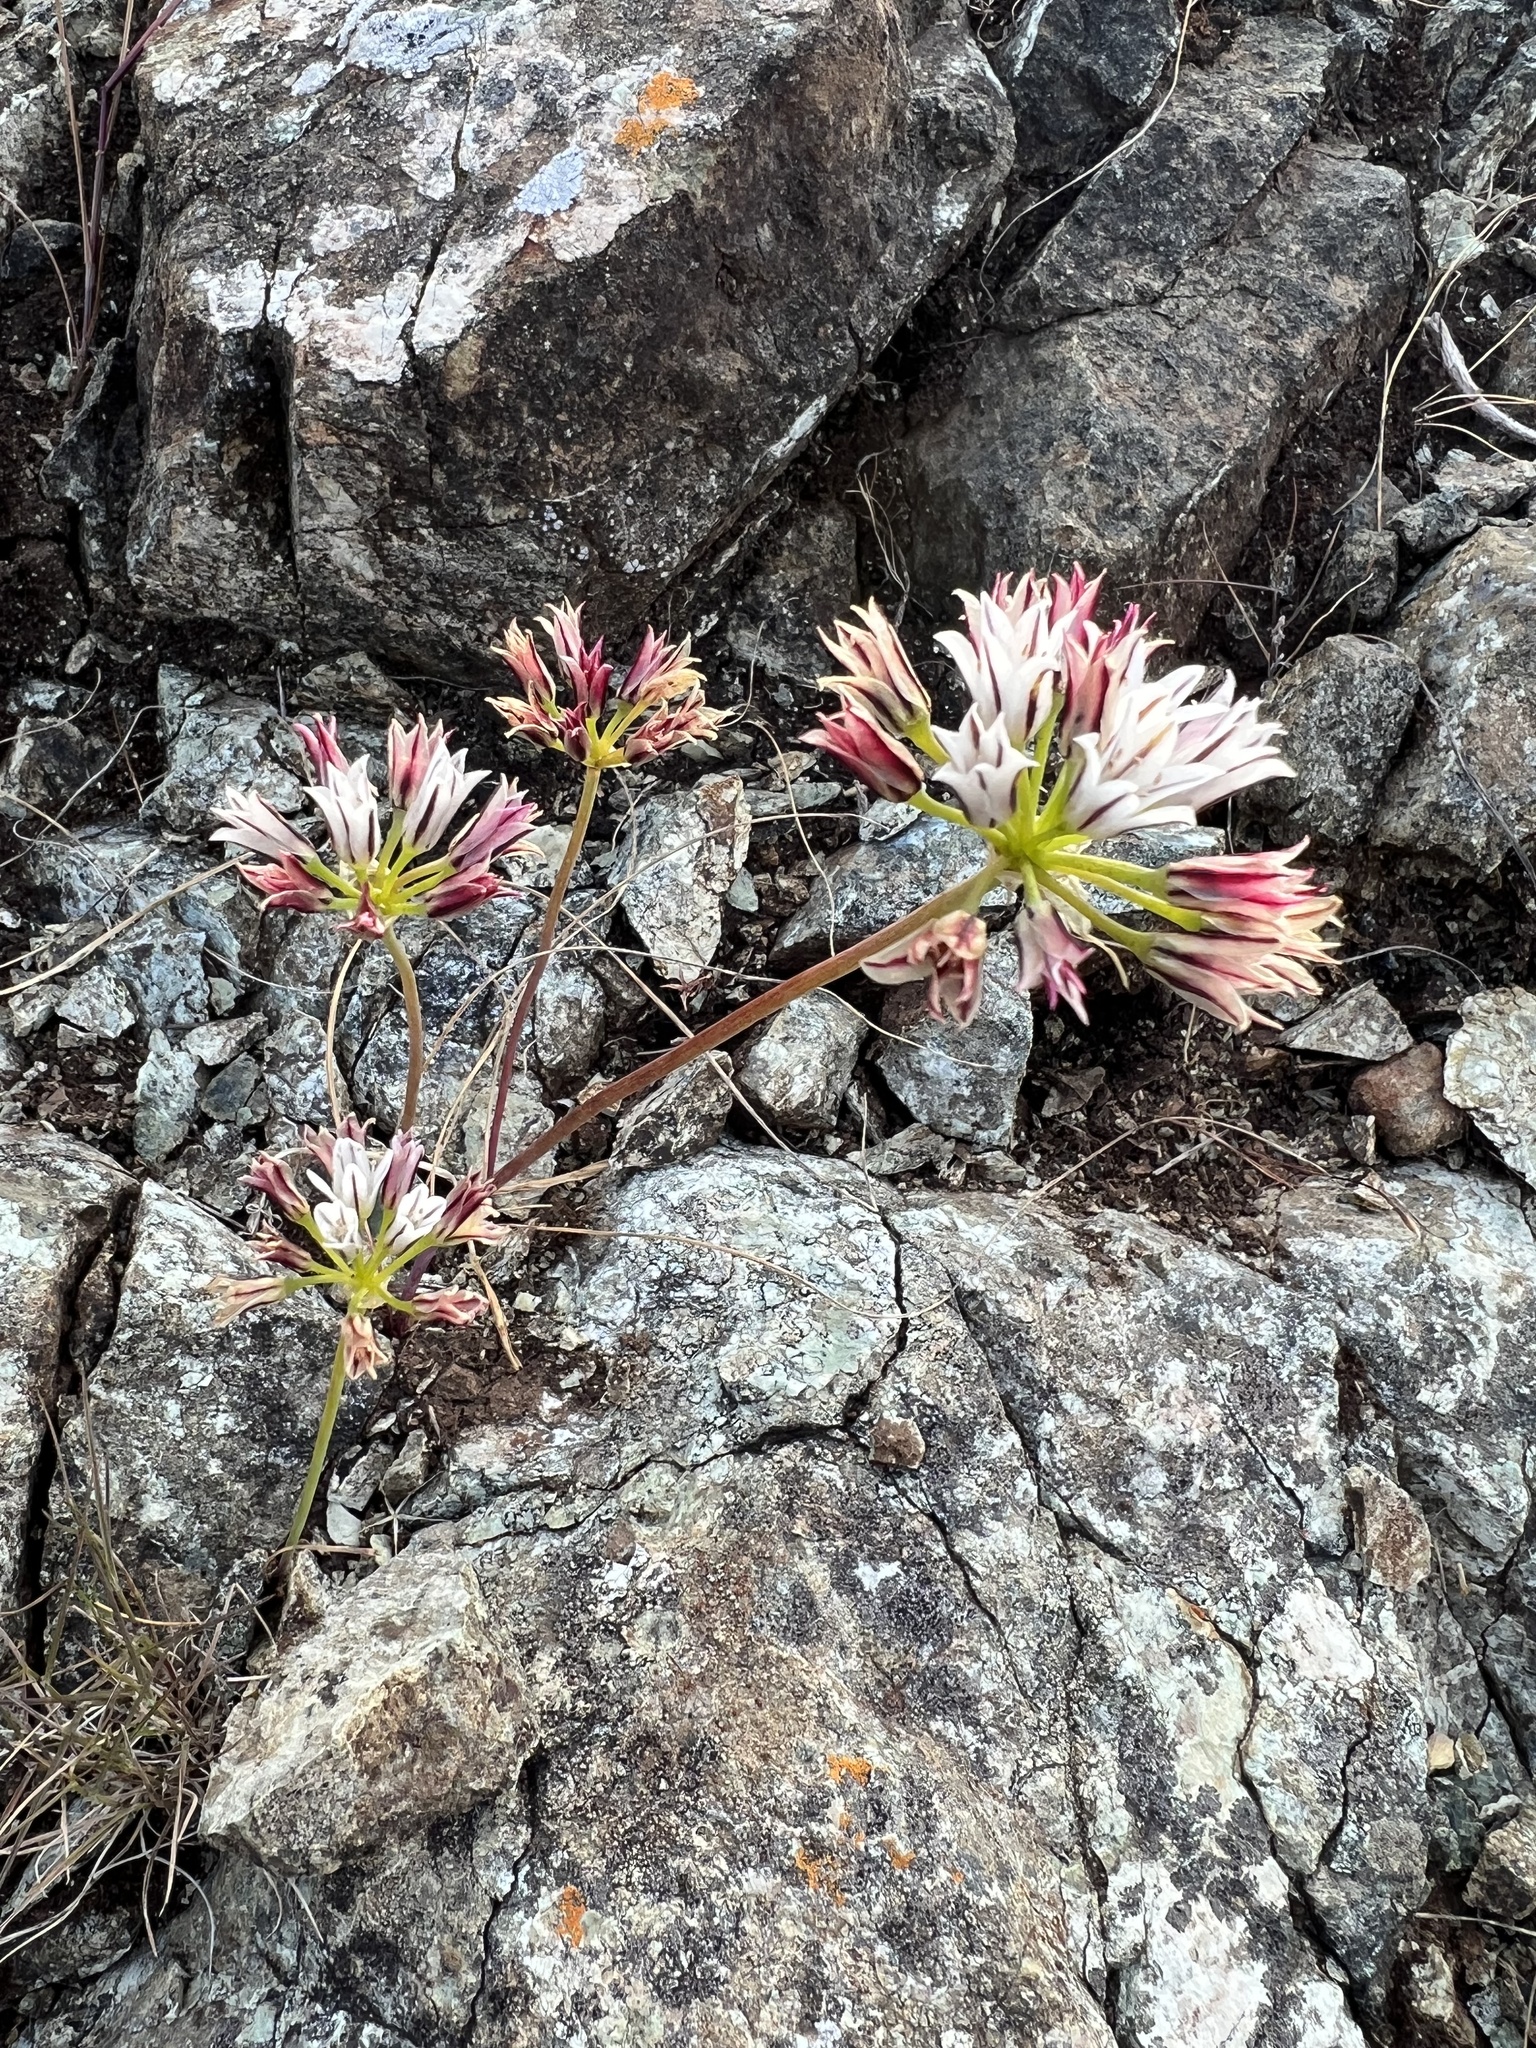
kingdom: Plantae
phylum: Tracheophyta
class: Liliopsida
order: Asparagales
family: Amaryllidaceae
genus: Allium
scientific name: Allium lacunosum
